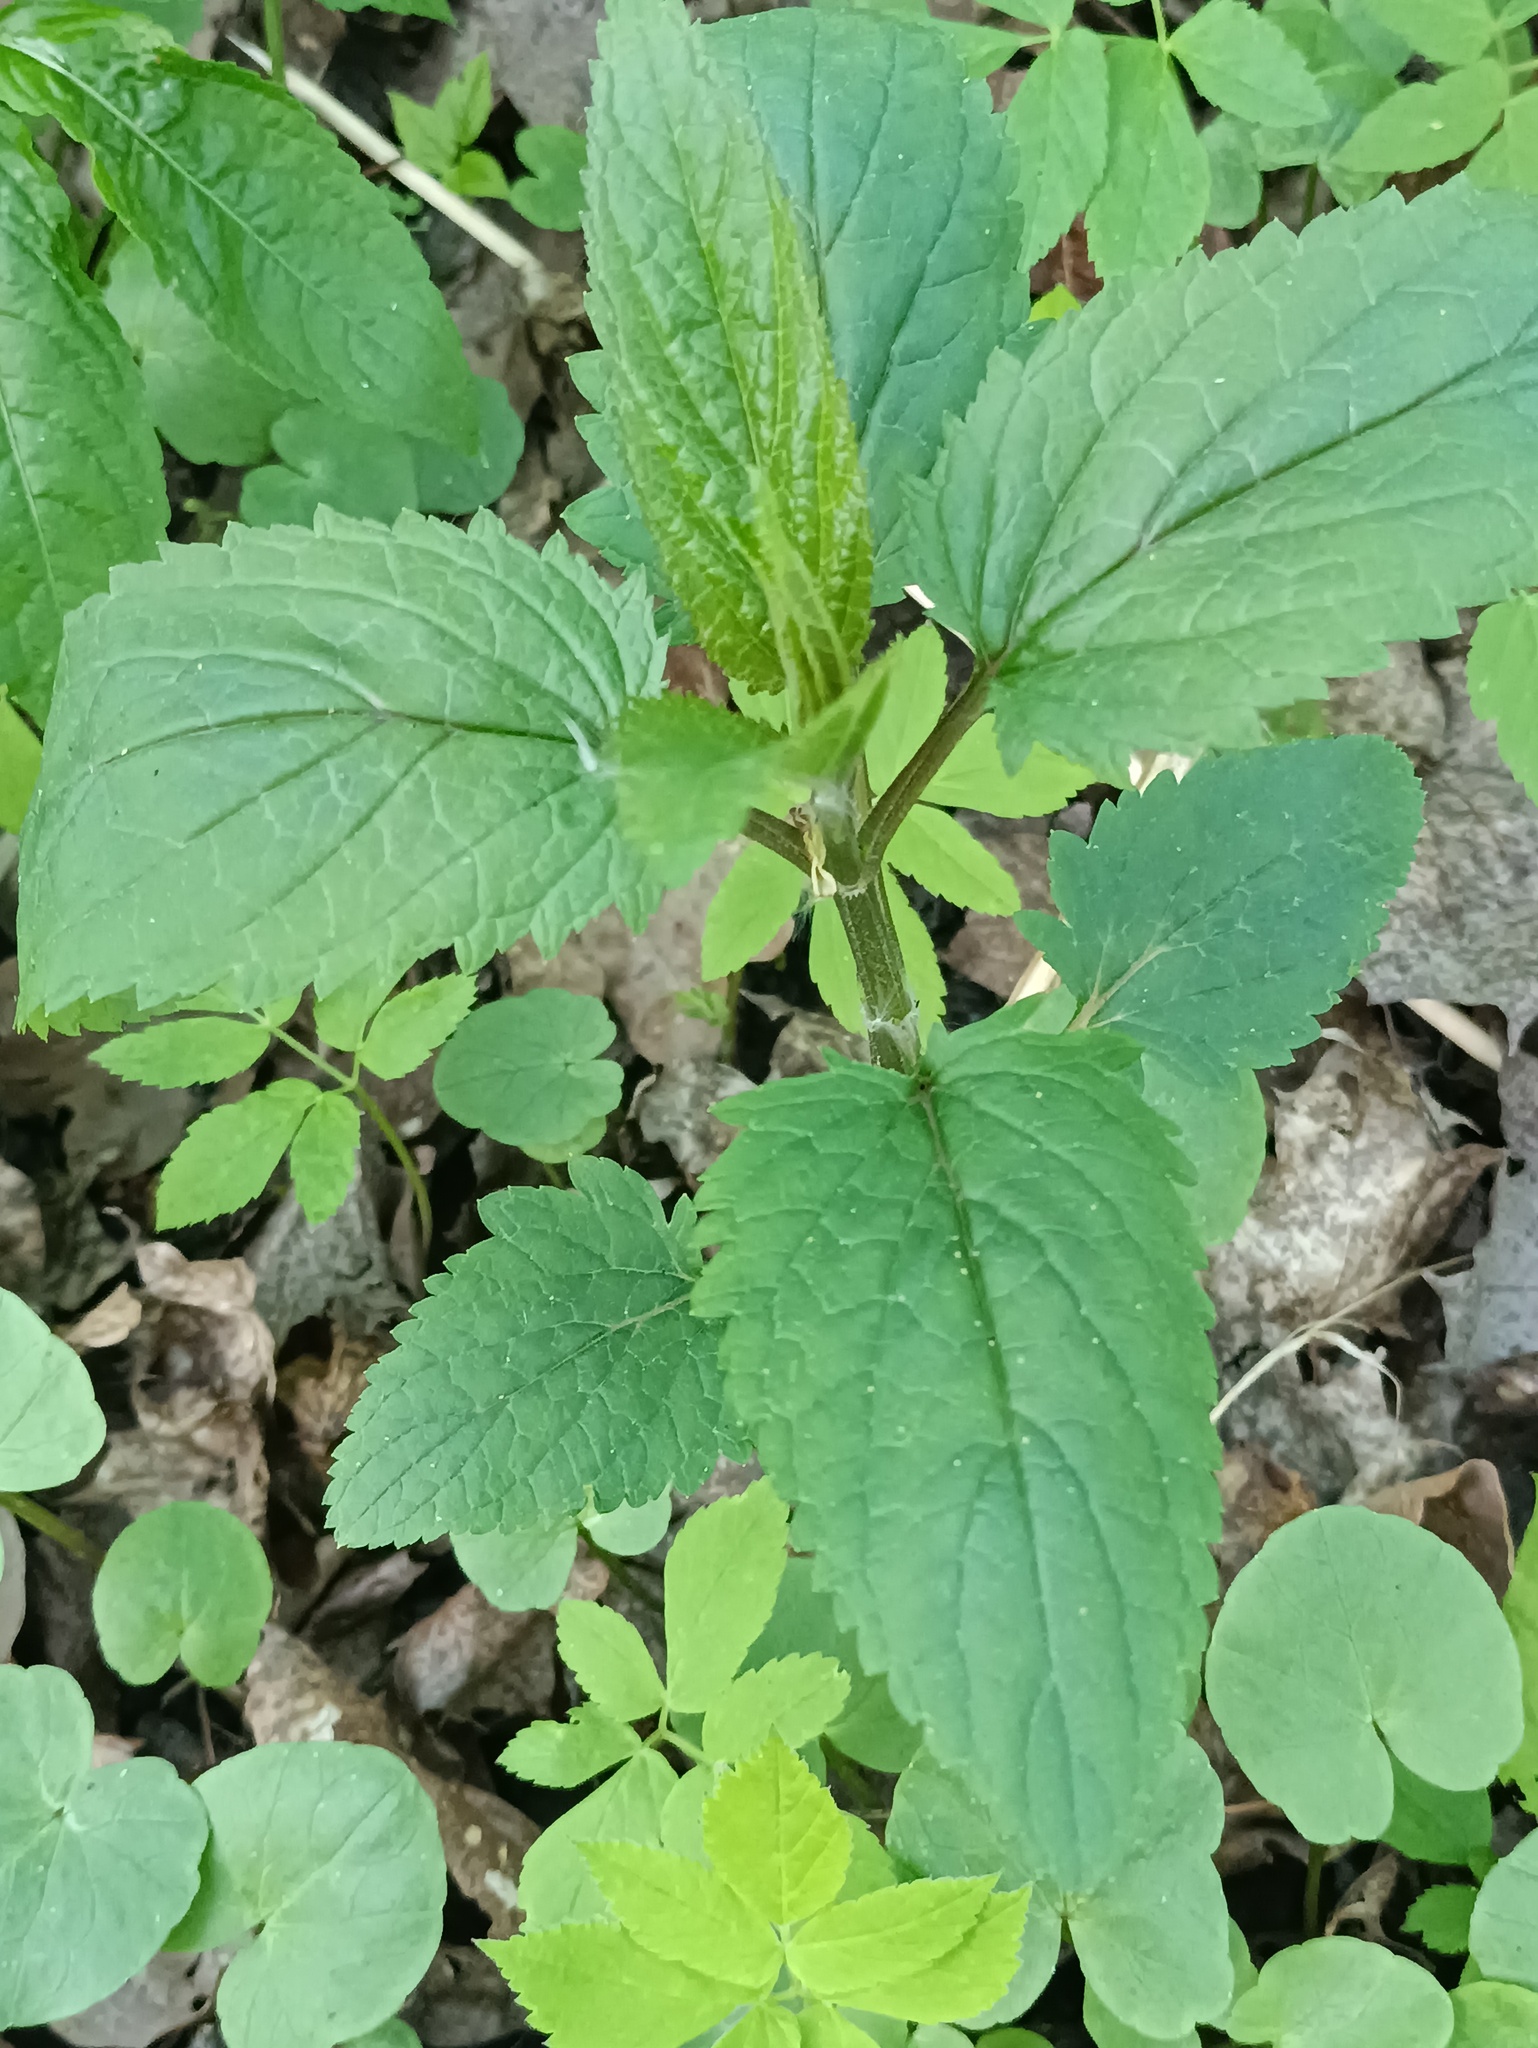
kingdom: Plantae
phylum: Tracheophyta
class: Magnoliopsida
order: Lamiales
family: Scrophulariaceae
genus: Scrophularia
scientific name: Scrophularia nodosa
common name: Common figwort
